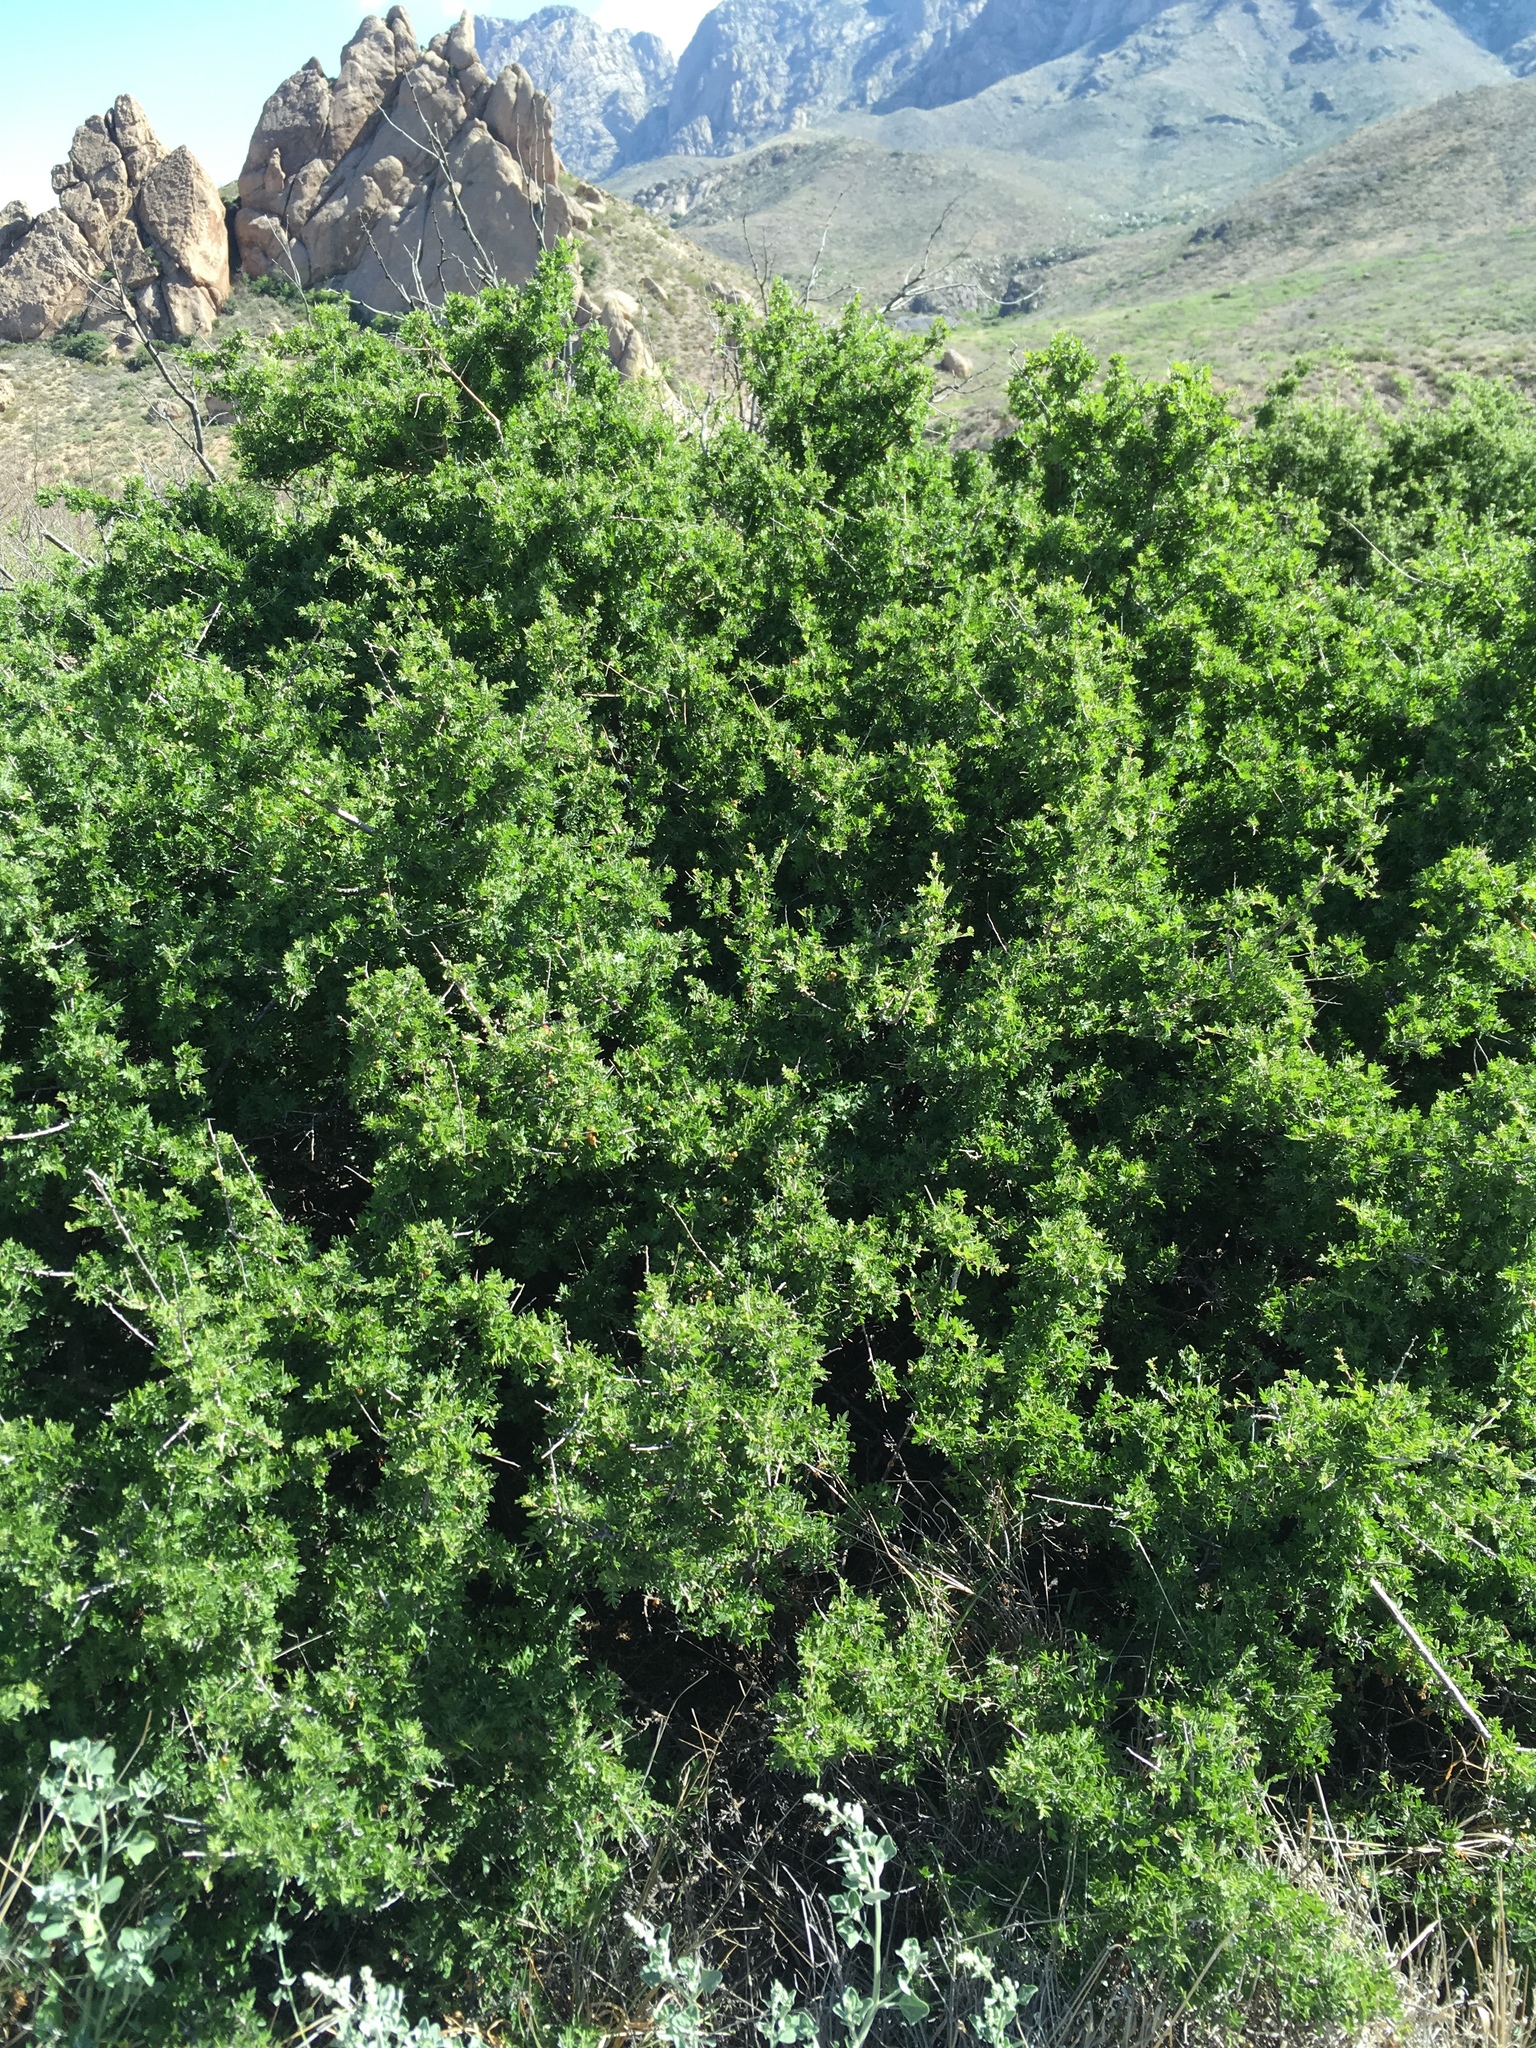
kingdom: Plantae
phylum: Tracheophyta
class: Magnoliopsida
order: Sapindales
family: Anacardiaceae
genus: Rhus
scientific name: Rhus microphylla
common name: Desert sumac
